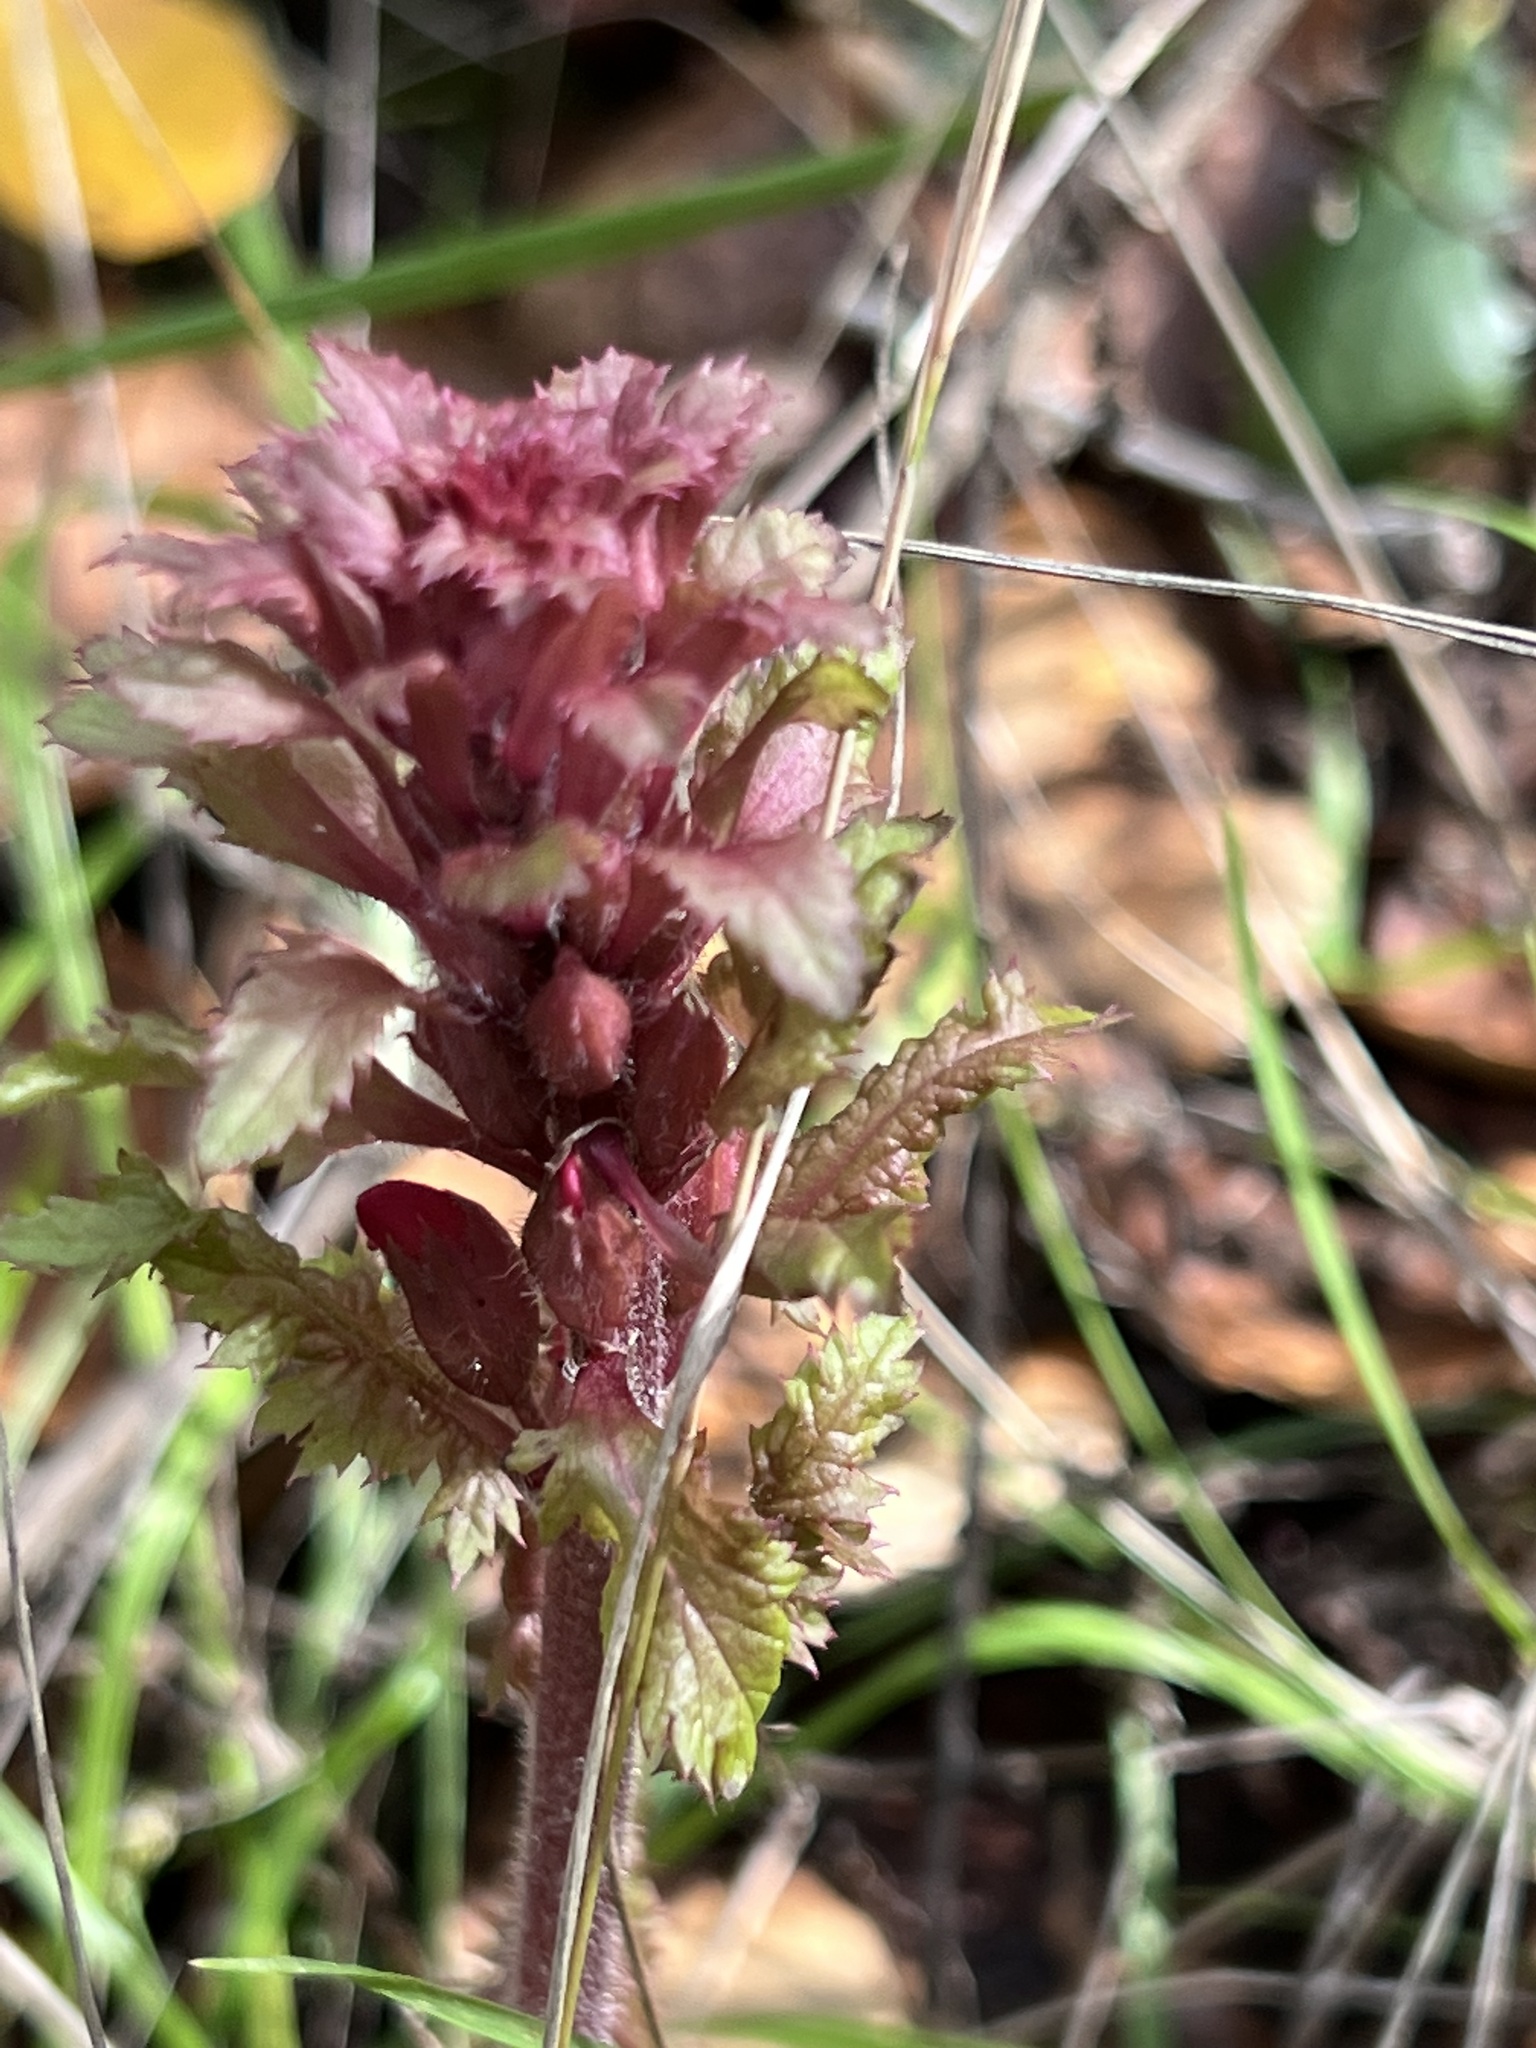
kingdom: Plantae
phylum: Tracheophyta
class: Magnoliopsida
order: Lamiales
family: Orobanchaceae
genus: Pedicularis
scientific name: Pedicularis densiflora
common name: Indian warrior
